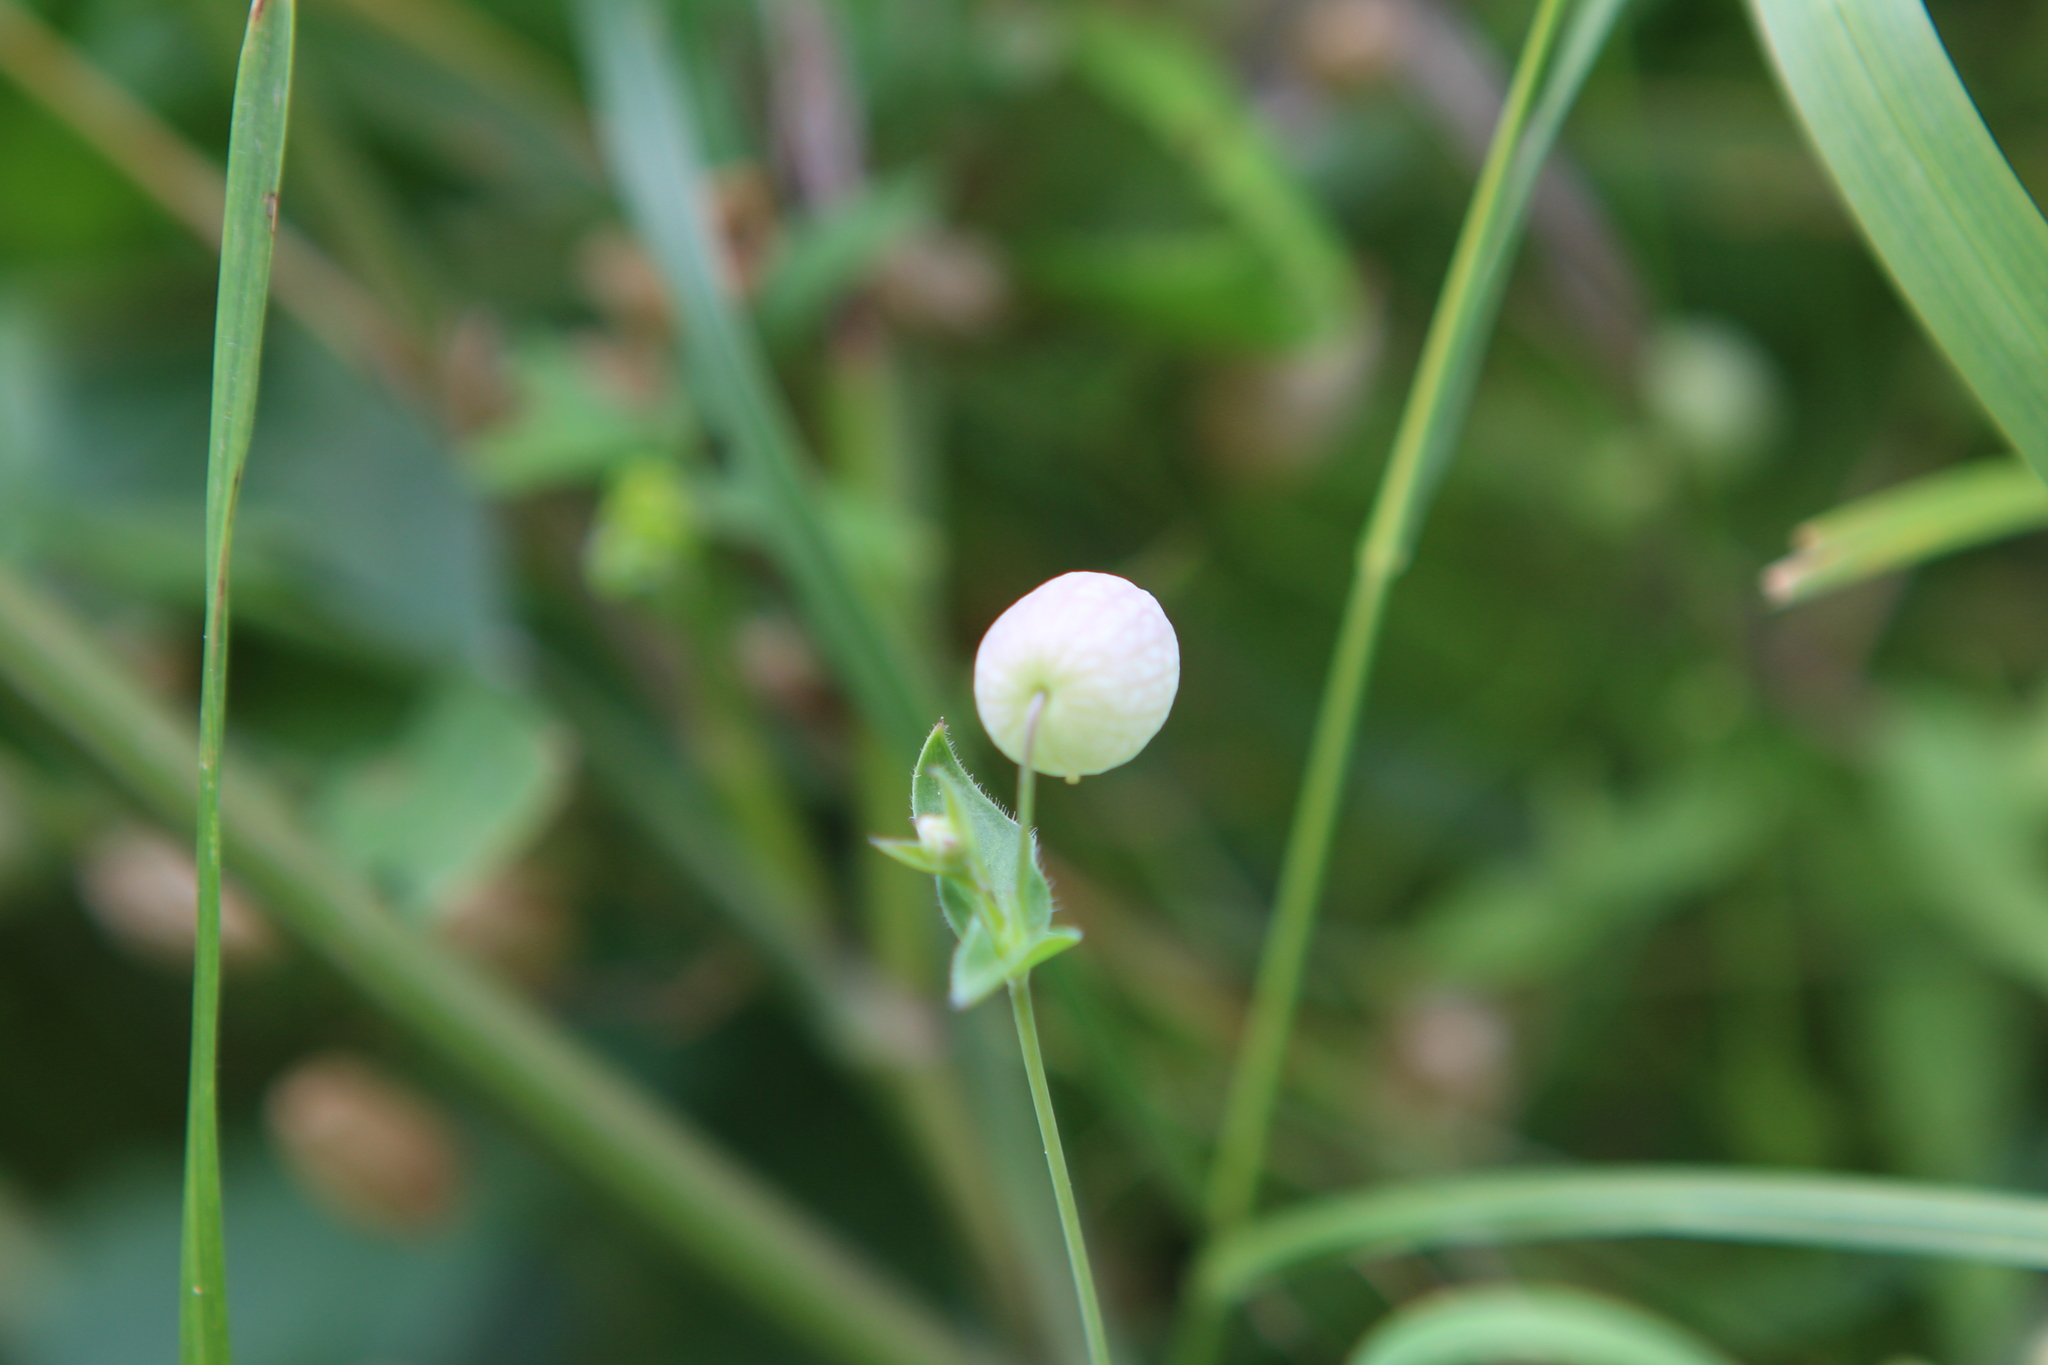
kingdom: Plantae
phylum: Tracheophyta
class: Magnoliopsida
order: Caryophyllales
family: Caryophyllaceae
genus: Silene
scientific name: Silene vulgaris
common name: Bladder campion
